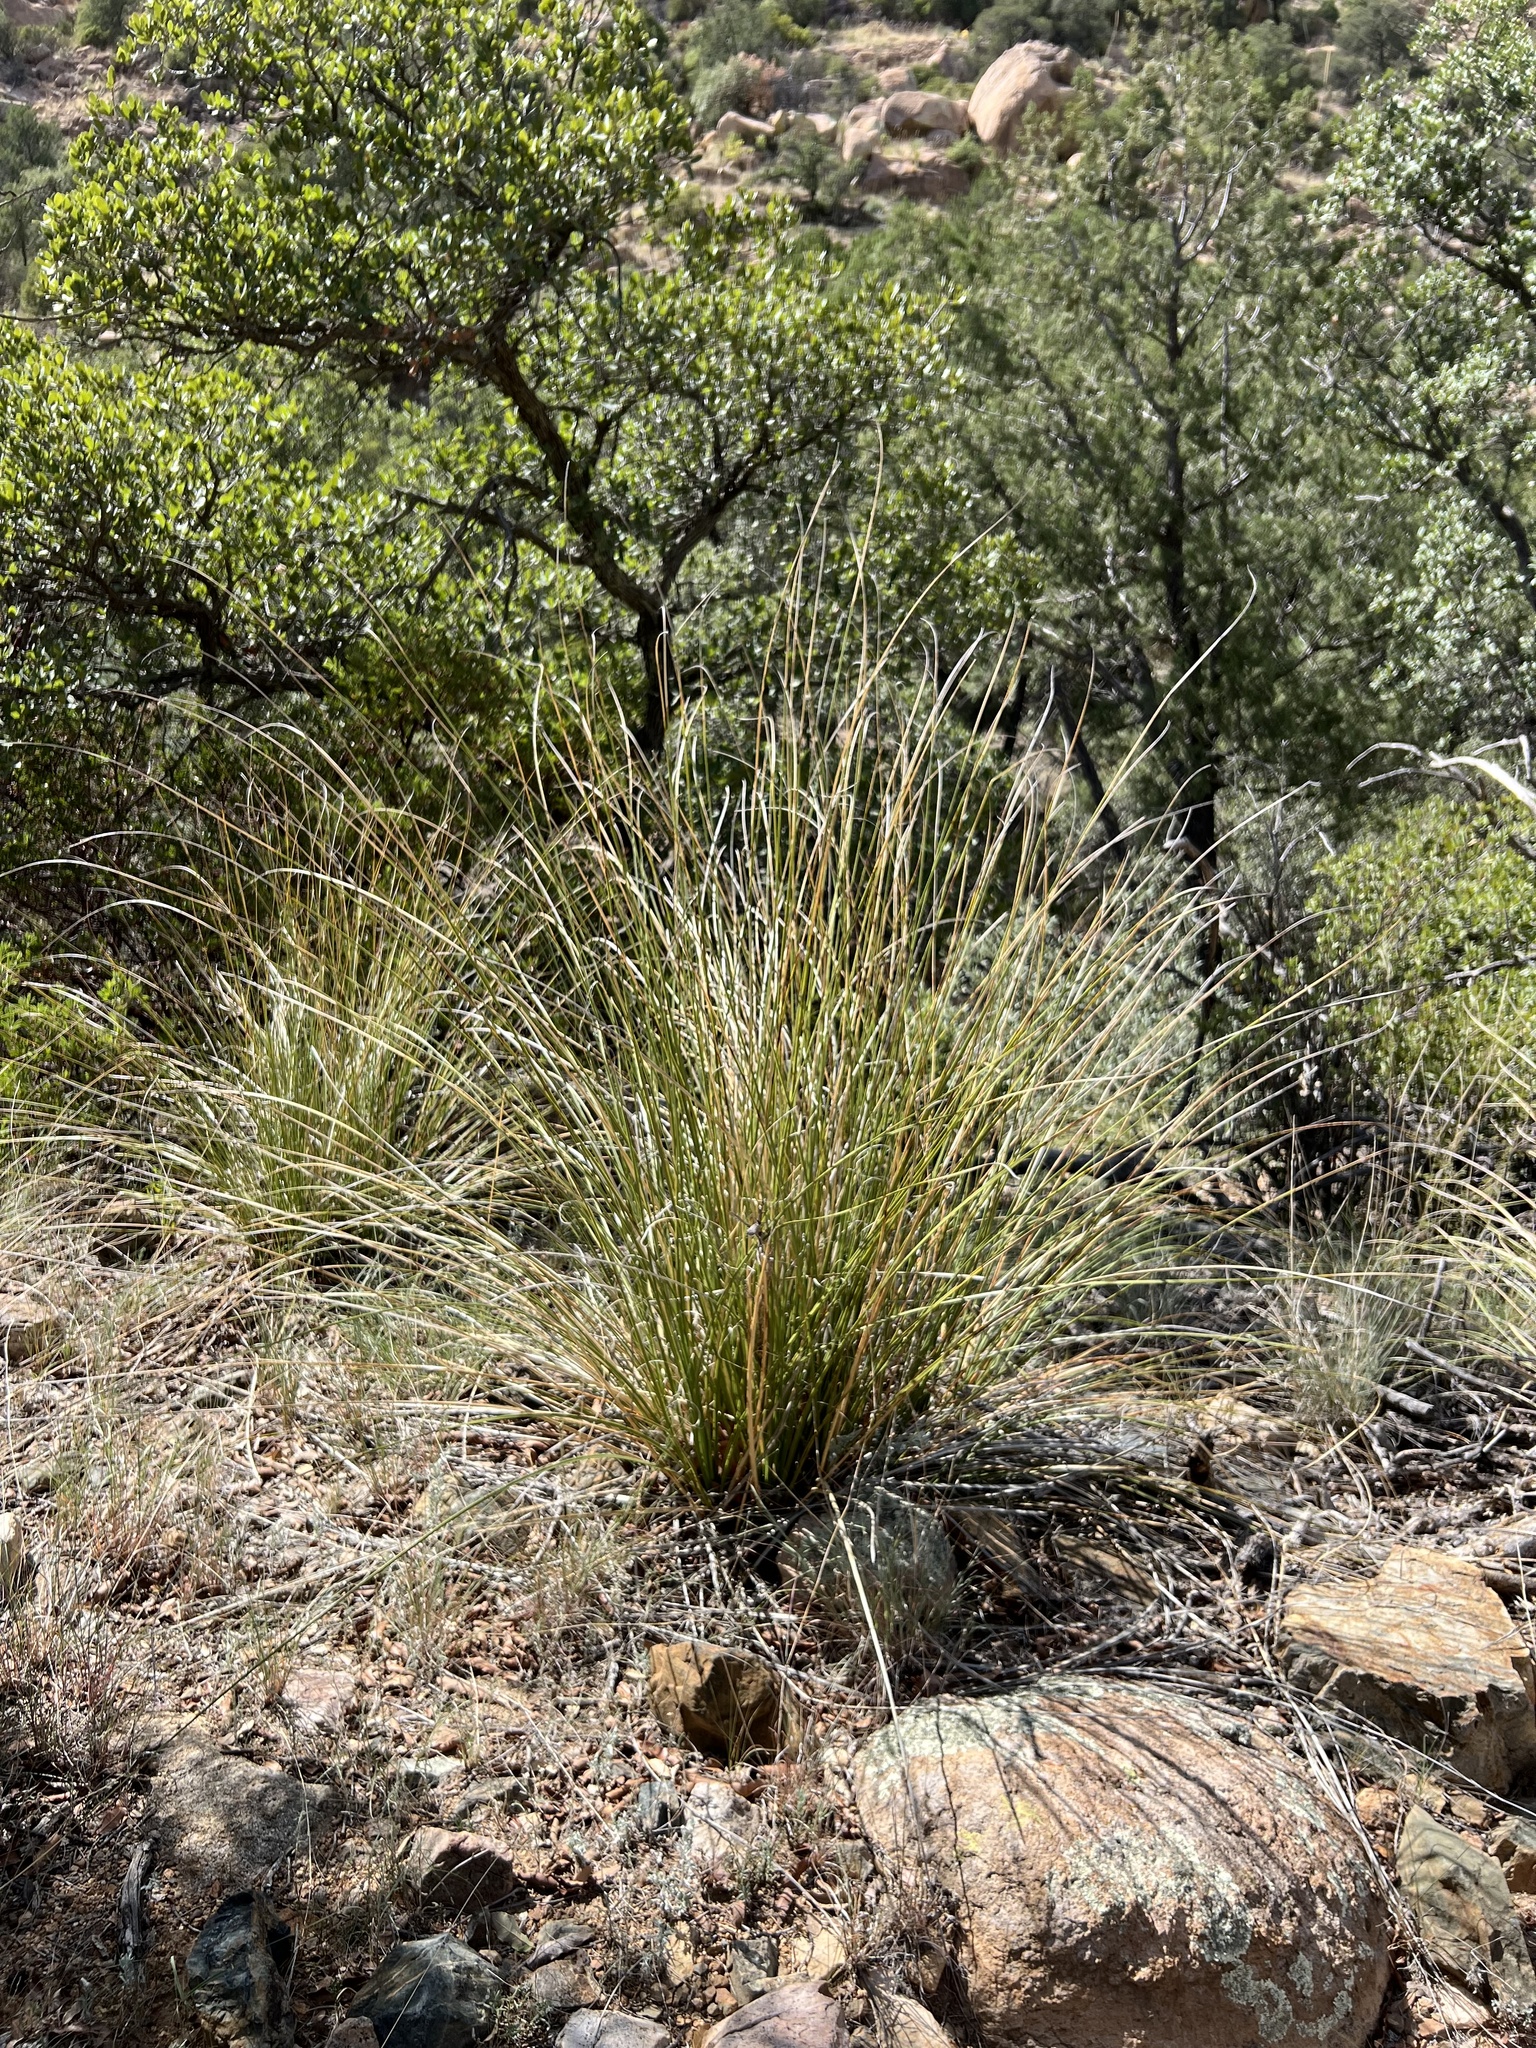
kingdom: Plantae
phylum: Tracheophyta
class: Liliopsida
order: Asparagales
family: Asparagaceae
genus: Nolina
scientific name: Nolina microcarpa
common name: Bear-grass
